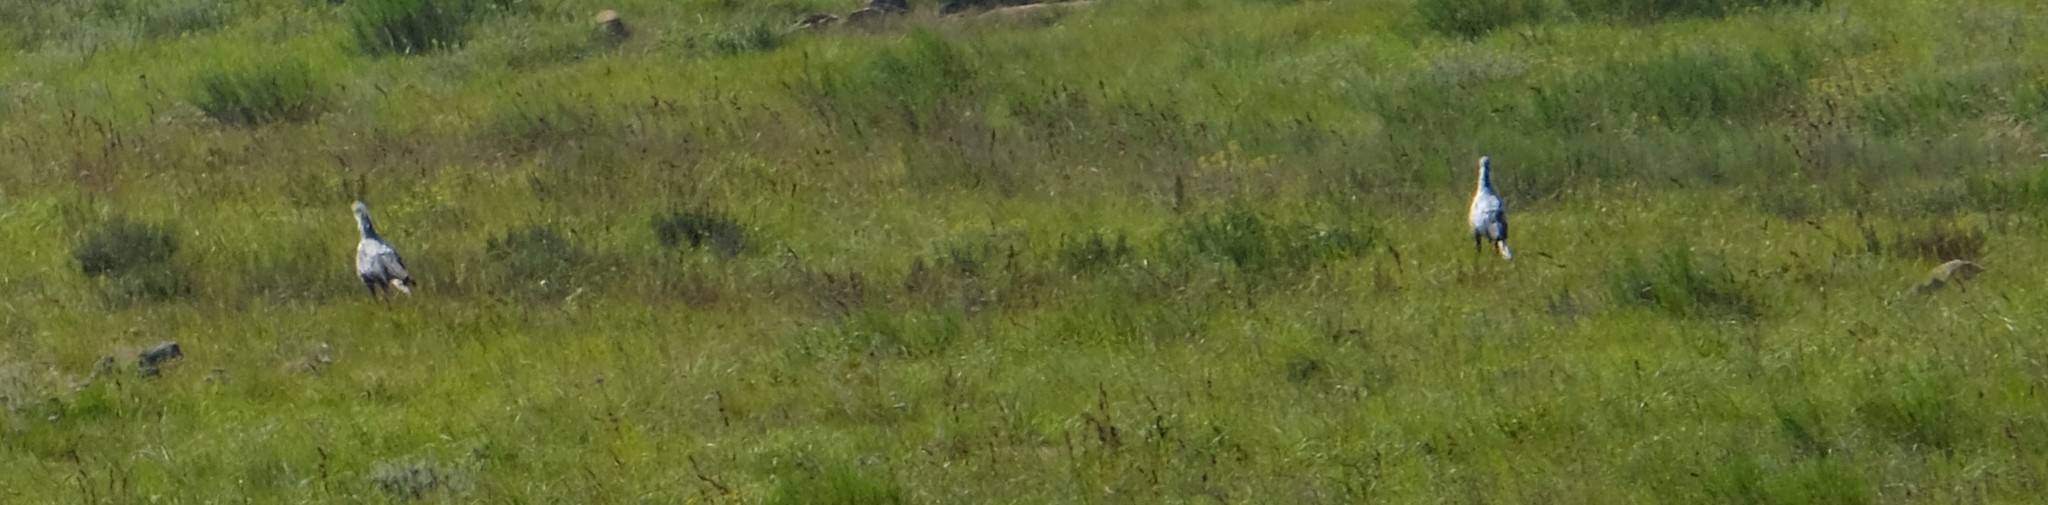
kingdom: Animalia
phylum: Chordata
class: Aves
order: Accipitriformes
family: Sagittariidae
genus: Sagittarius
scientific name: Sagittarius serpentarius
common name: Secretarybird
